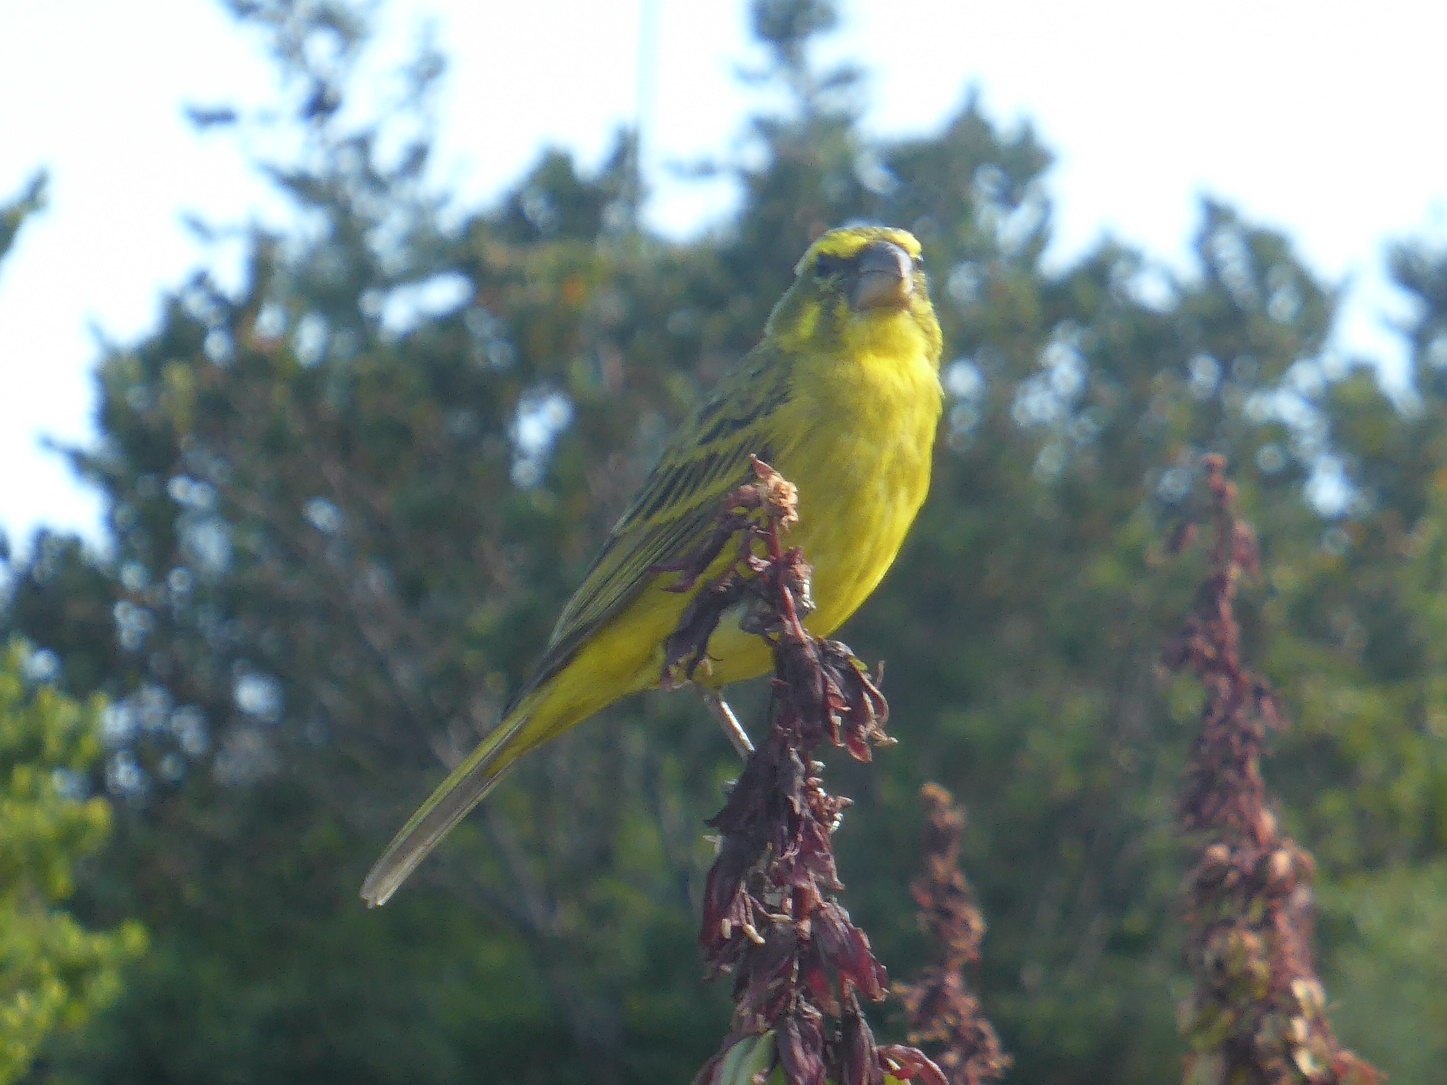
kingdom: Animalia
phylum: Chordata
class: Aves
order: Passeriformes
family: Fringillidae
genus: Crithagra
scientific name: Crithagra sulphurata
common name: Brimstone canary
